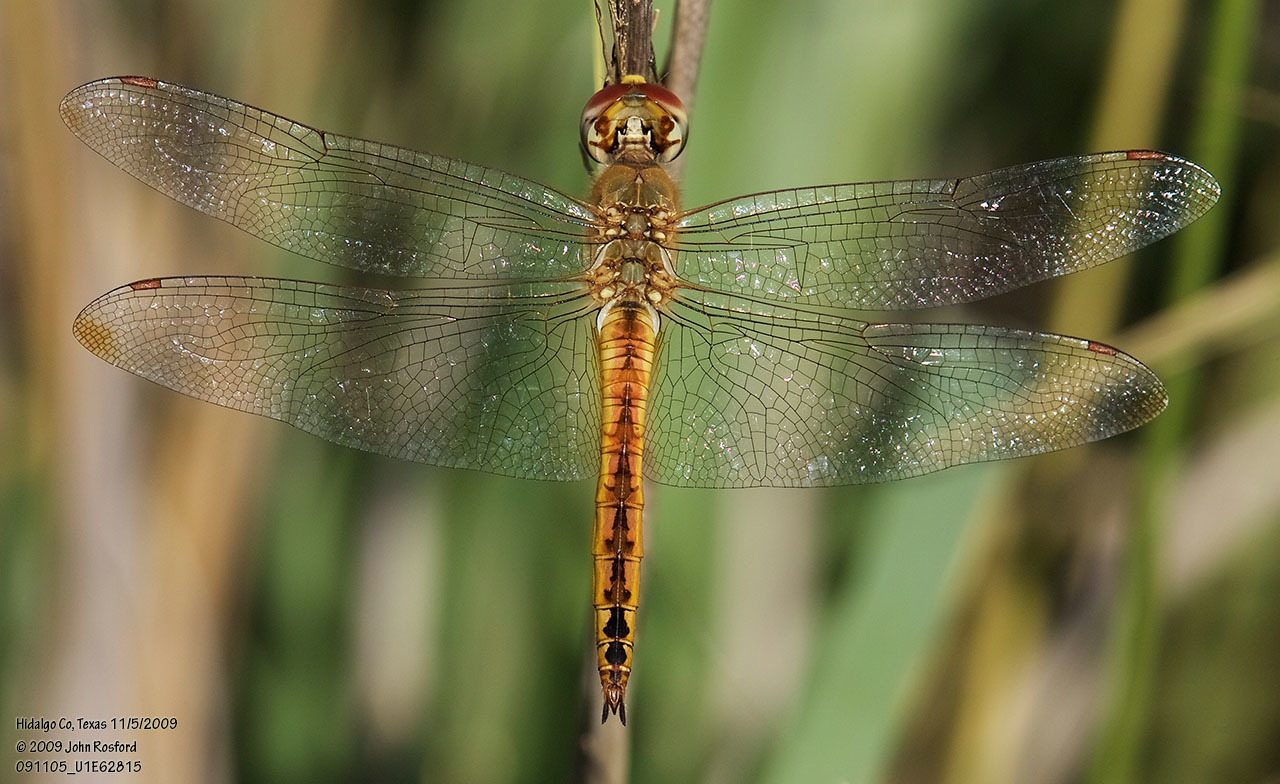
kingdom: Animalia
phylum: Arthropoda
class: Insecta
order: Odonata
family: Libellulidae
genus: Pantala
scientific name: Pantala flavescens
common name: Wandering glider
